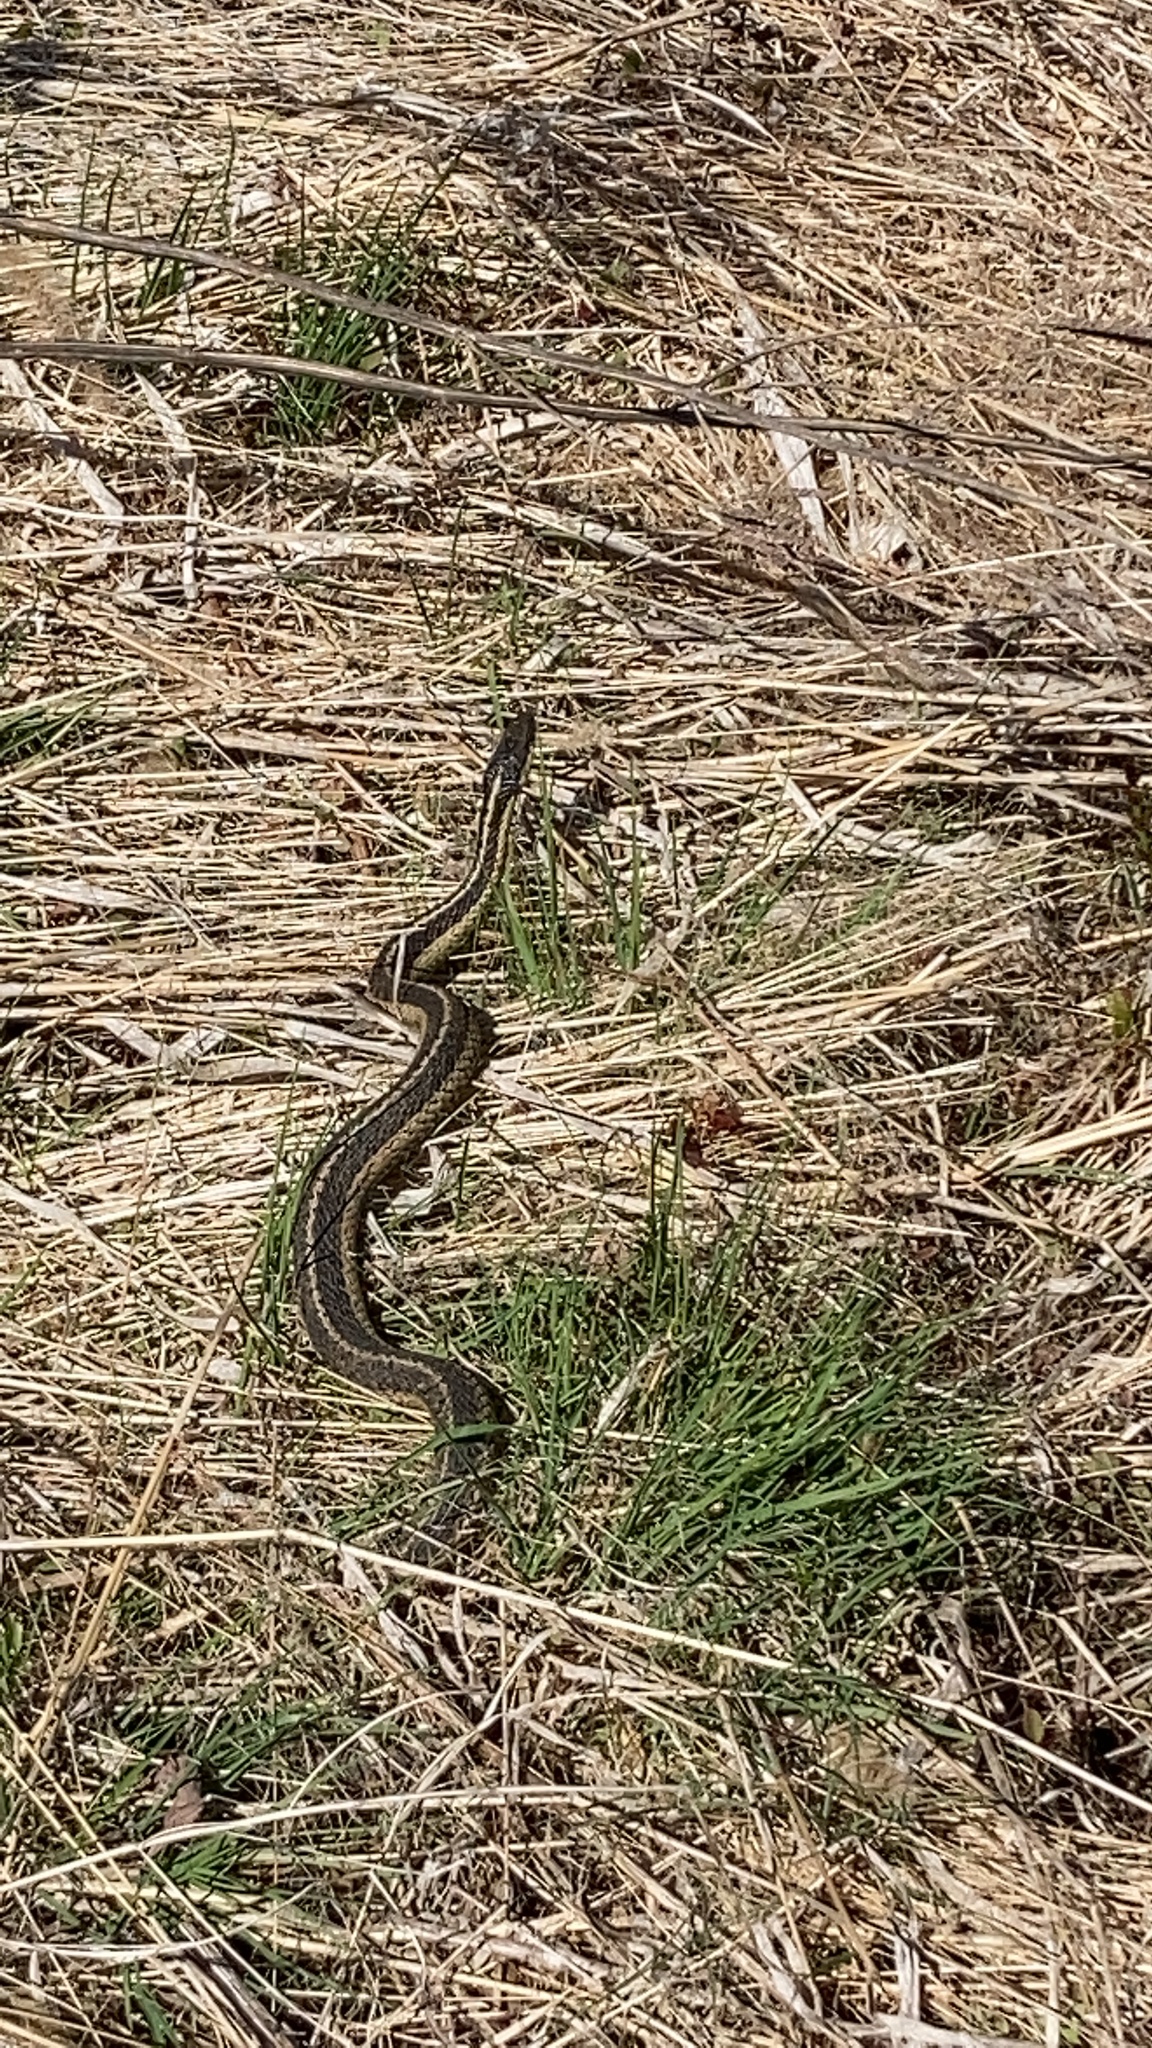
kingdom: Animalia
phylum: Chordata
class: Squamata
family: Colubridae
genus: Thamnophis
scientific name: Thamnophis sirtalis
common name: Common garter snake
